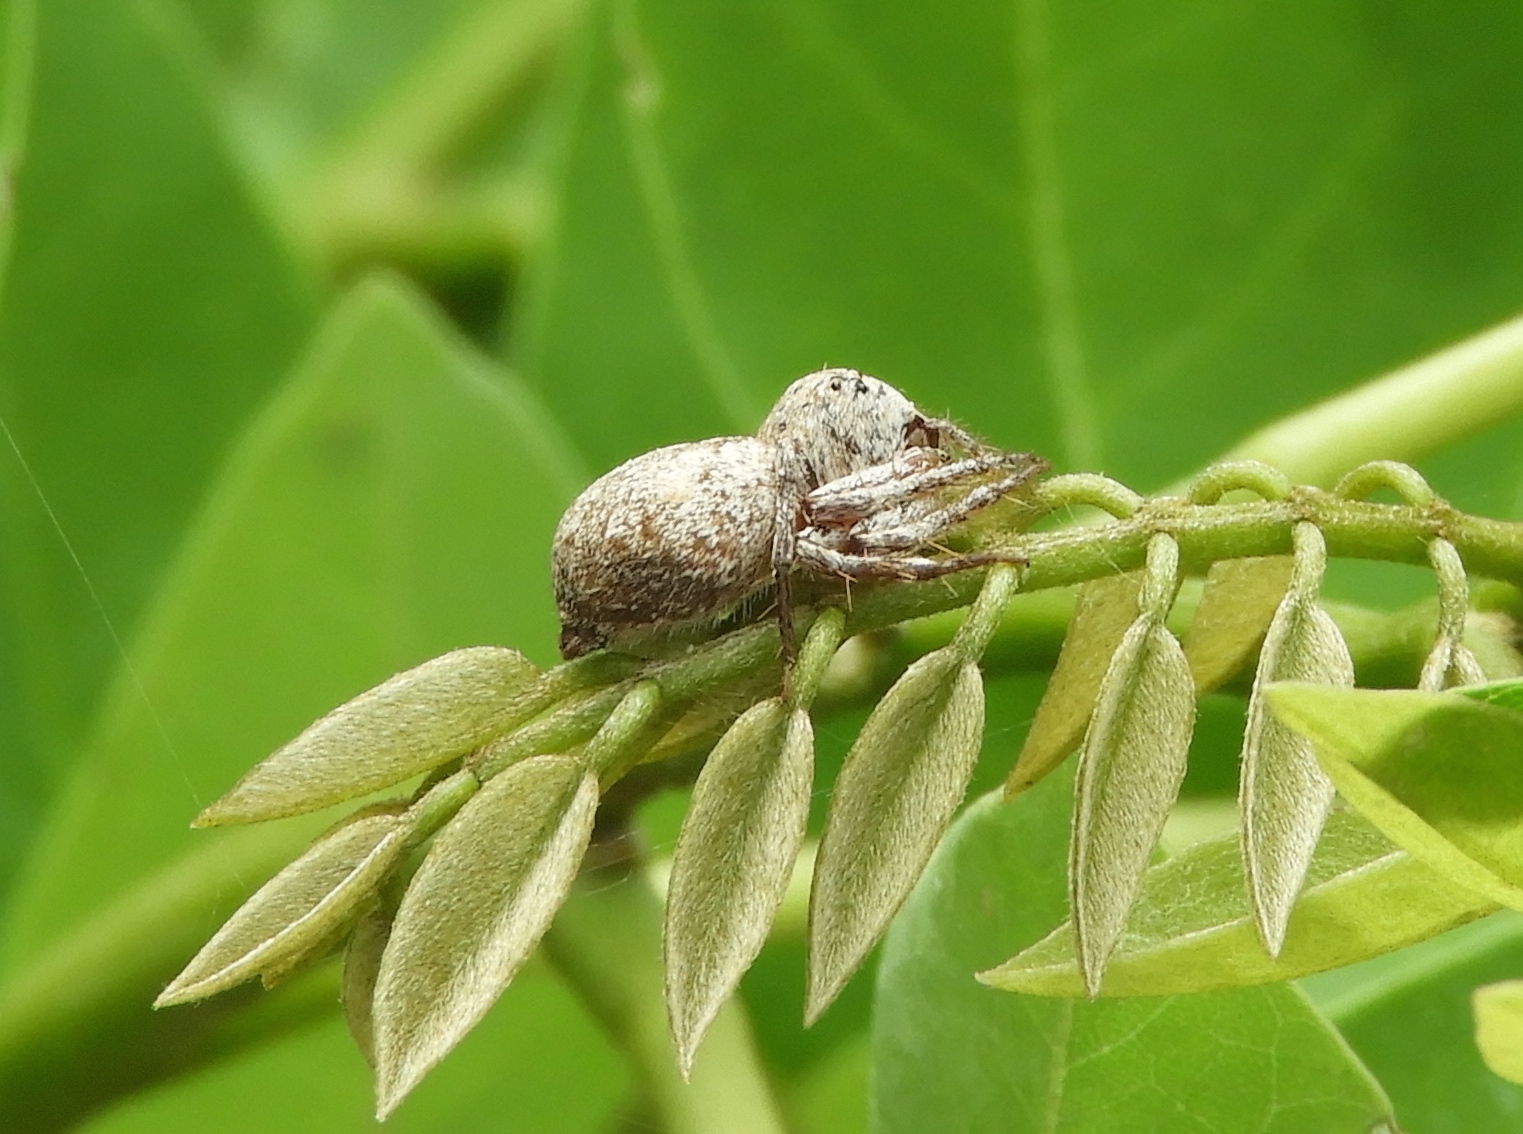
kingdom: Animalia
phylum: Arthropoda
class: Arachnida
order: Araneae
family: Oxyopidae
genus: Hamataliwa
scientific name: Hamataliwa
